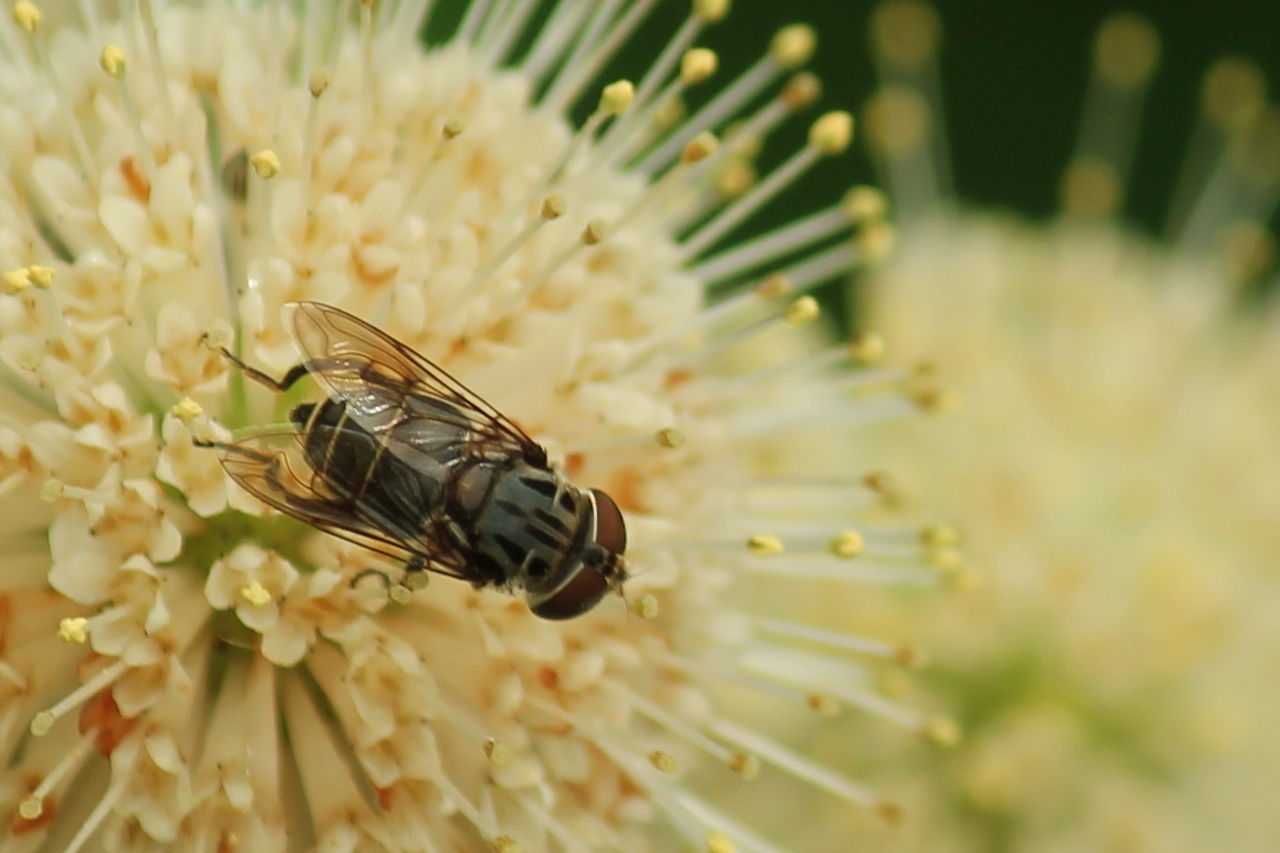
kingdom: Animalia
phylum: Arthropoda
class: Insecta
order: Diptera
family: Syrphidae
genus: Palpada
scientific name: Palpada furcata
